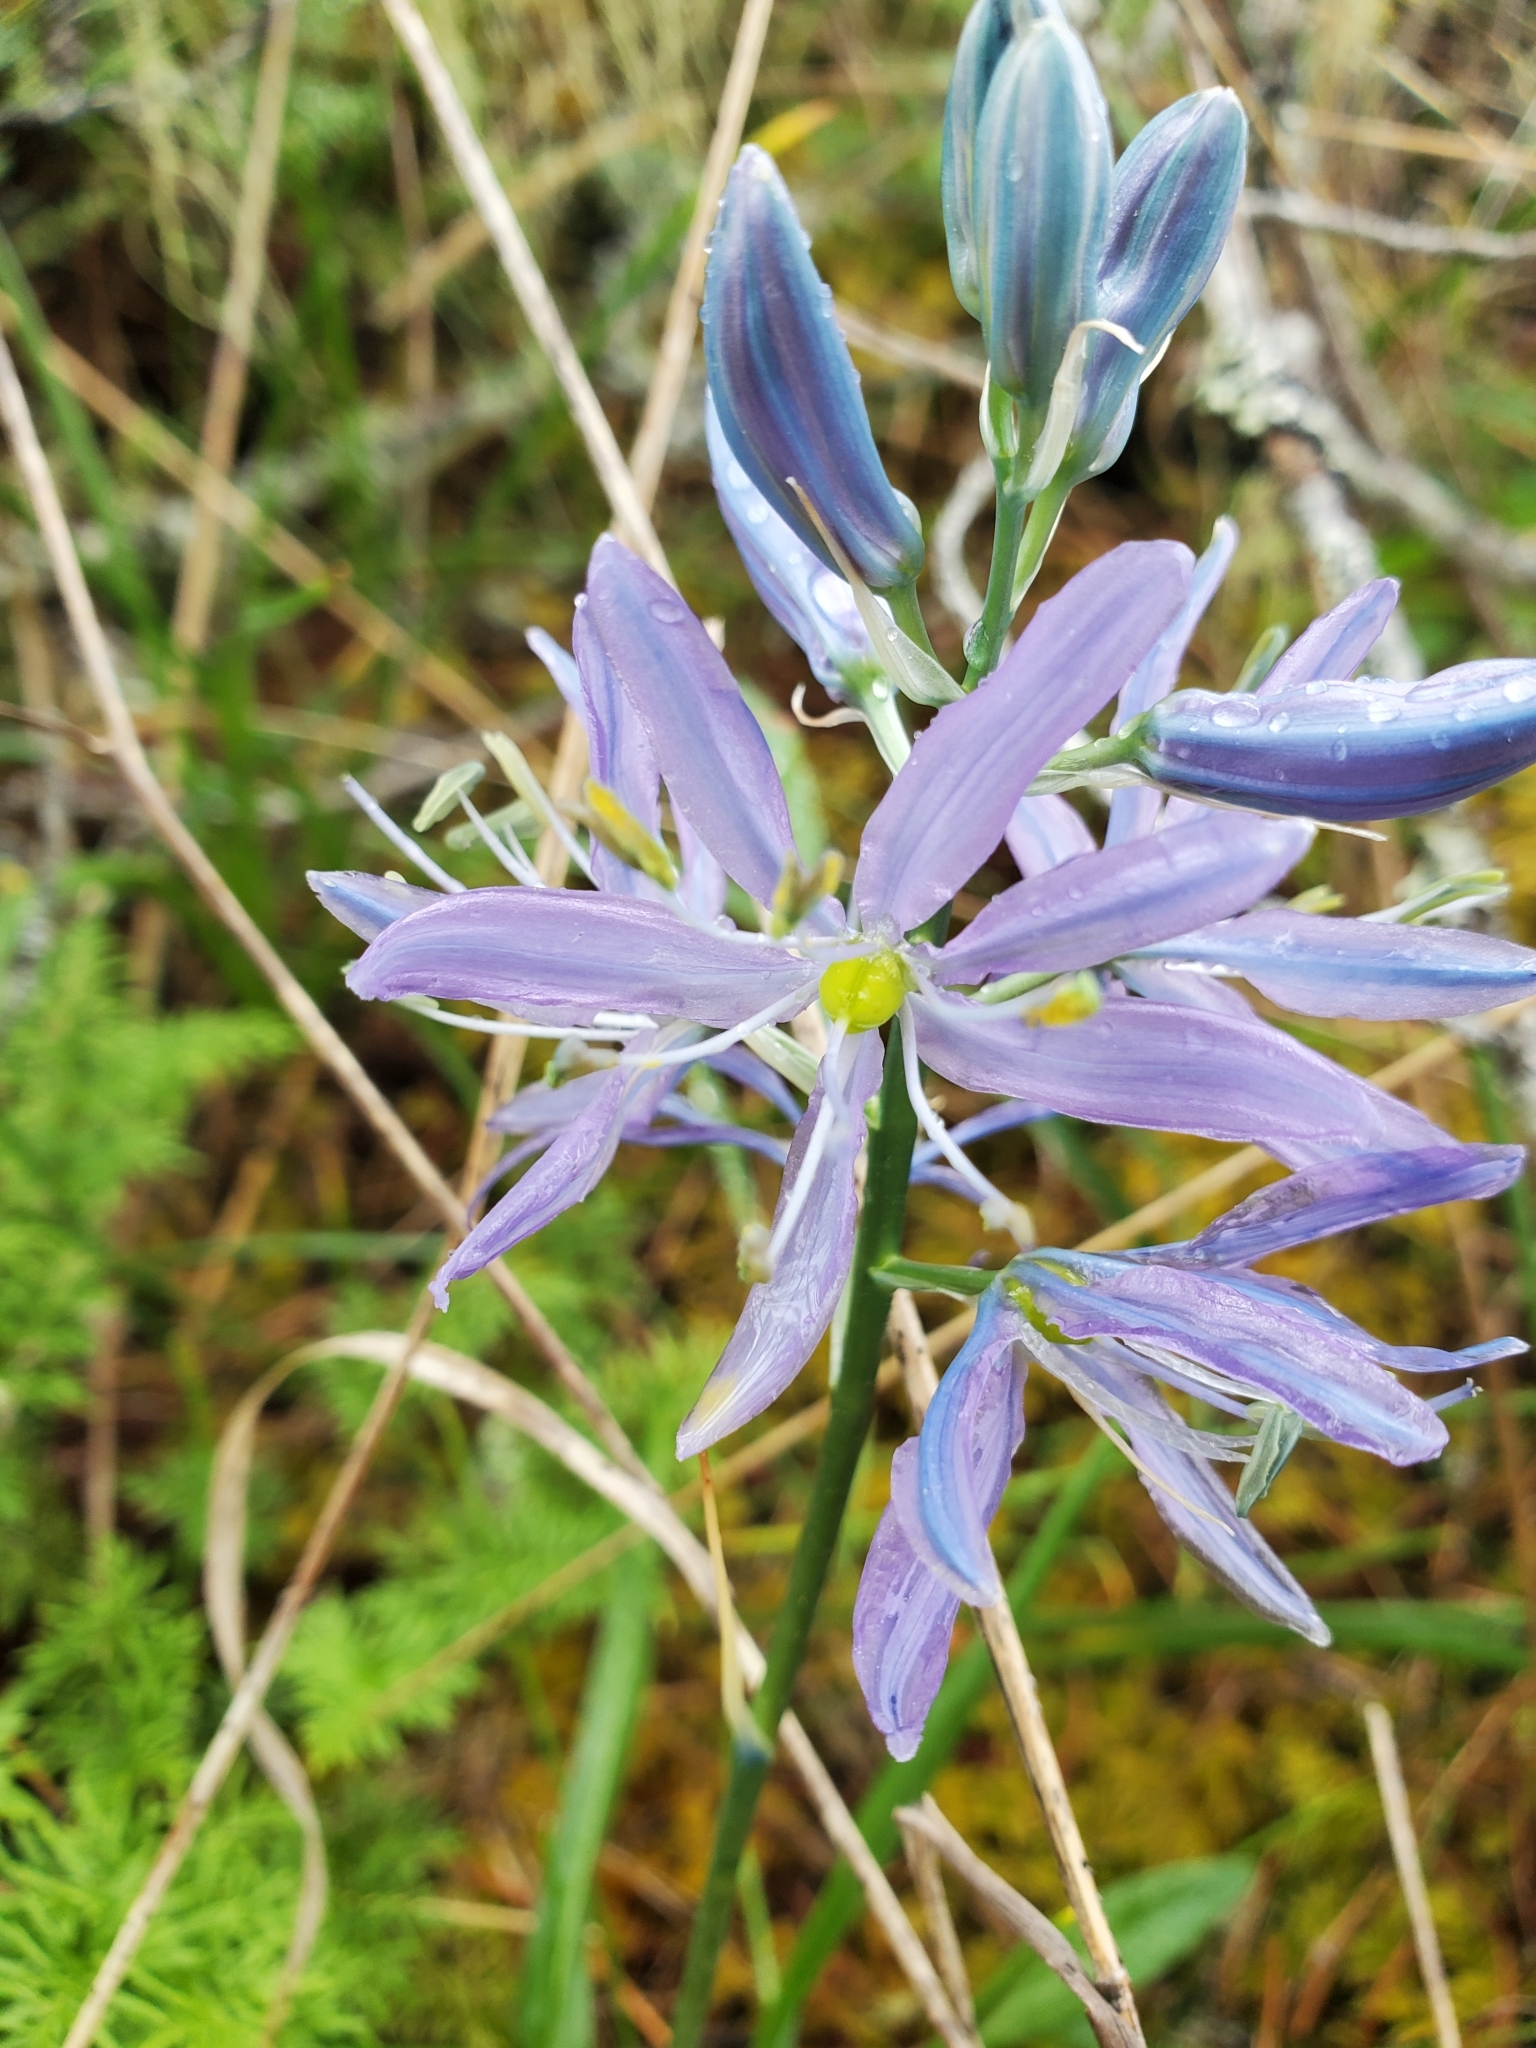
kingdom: Plantae
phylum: Tracheophyta
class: Liliopsida
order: Asparagales
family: Asparagaceae
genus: Camassia
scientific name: Camassia quamash
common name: Common camas
